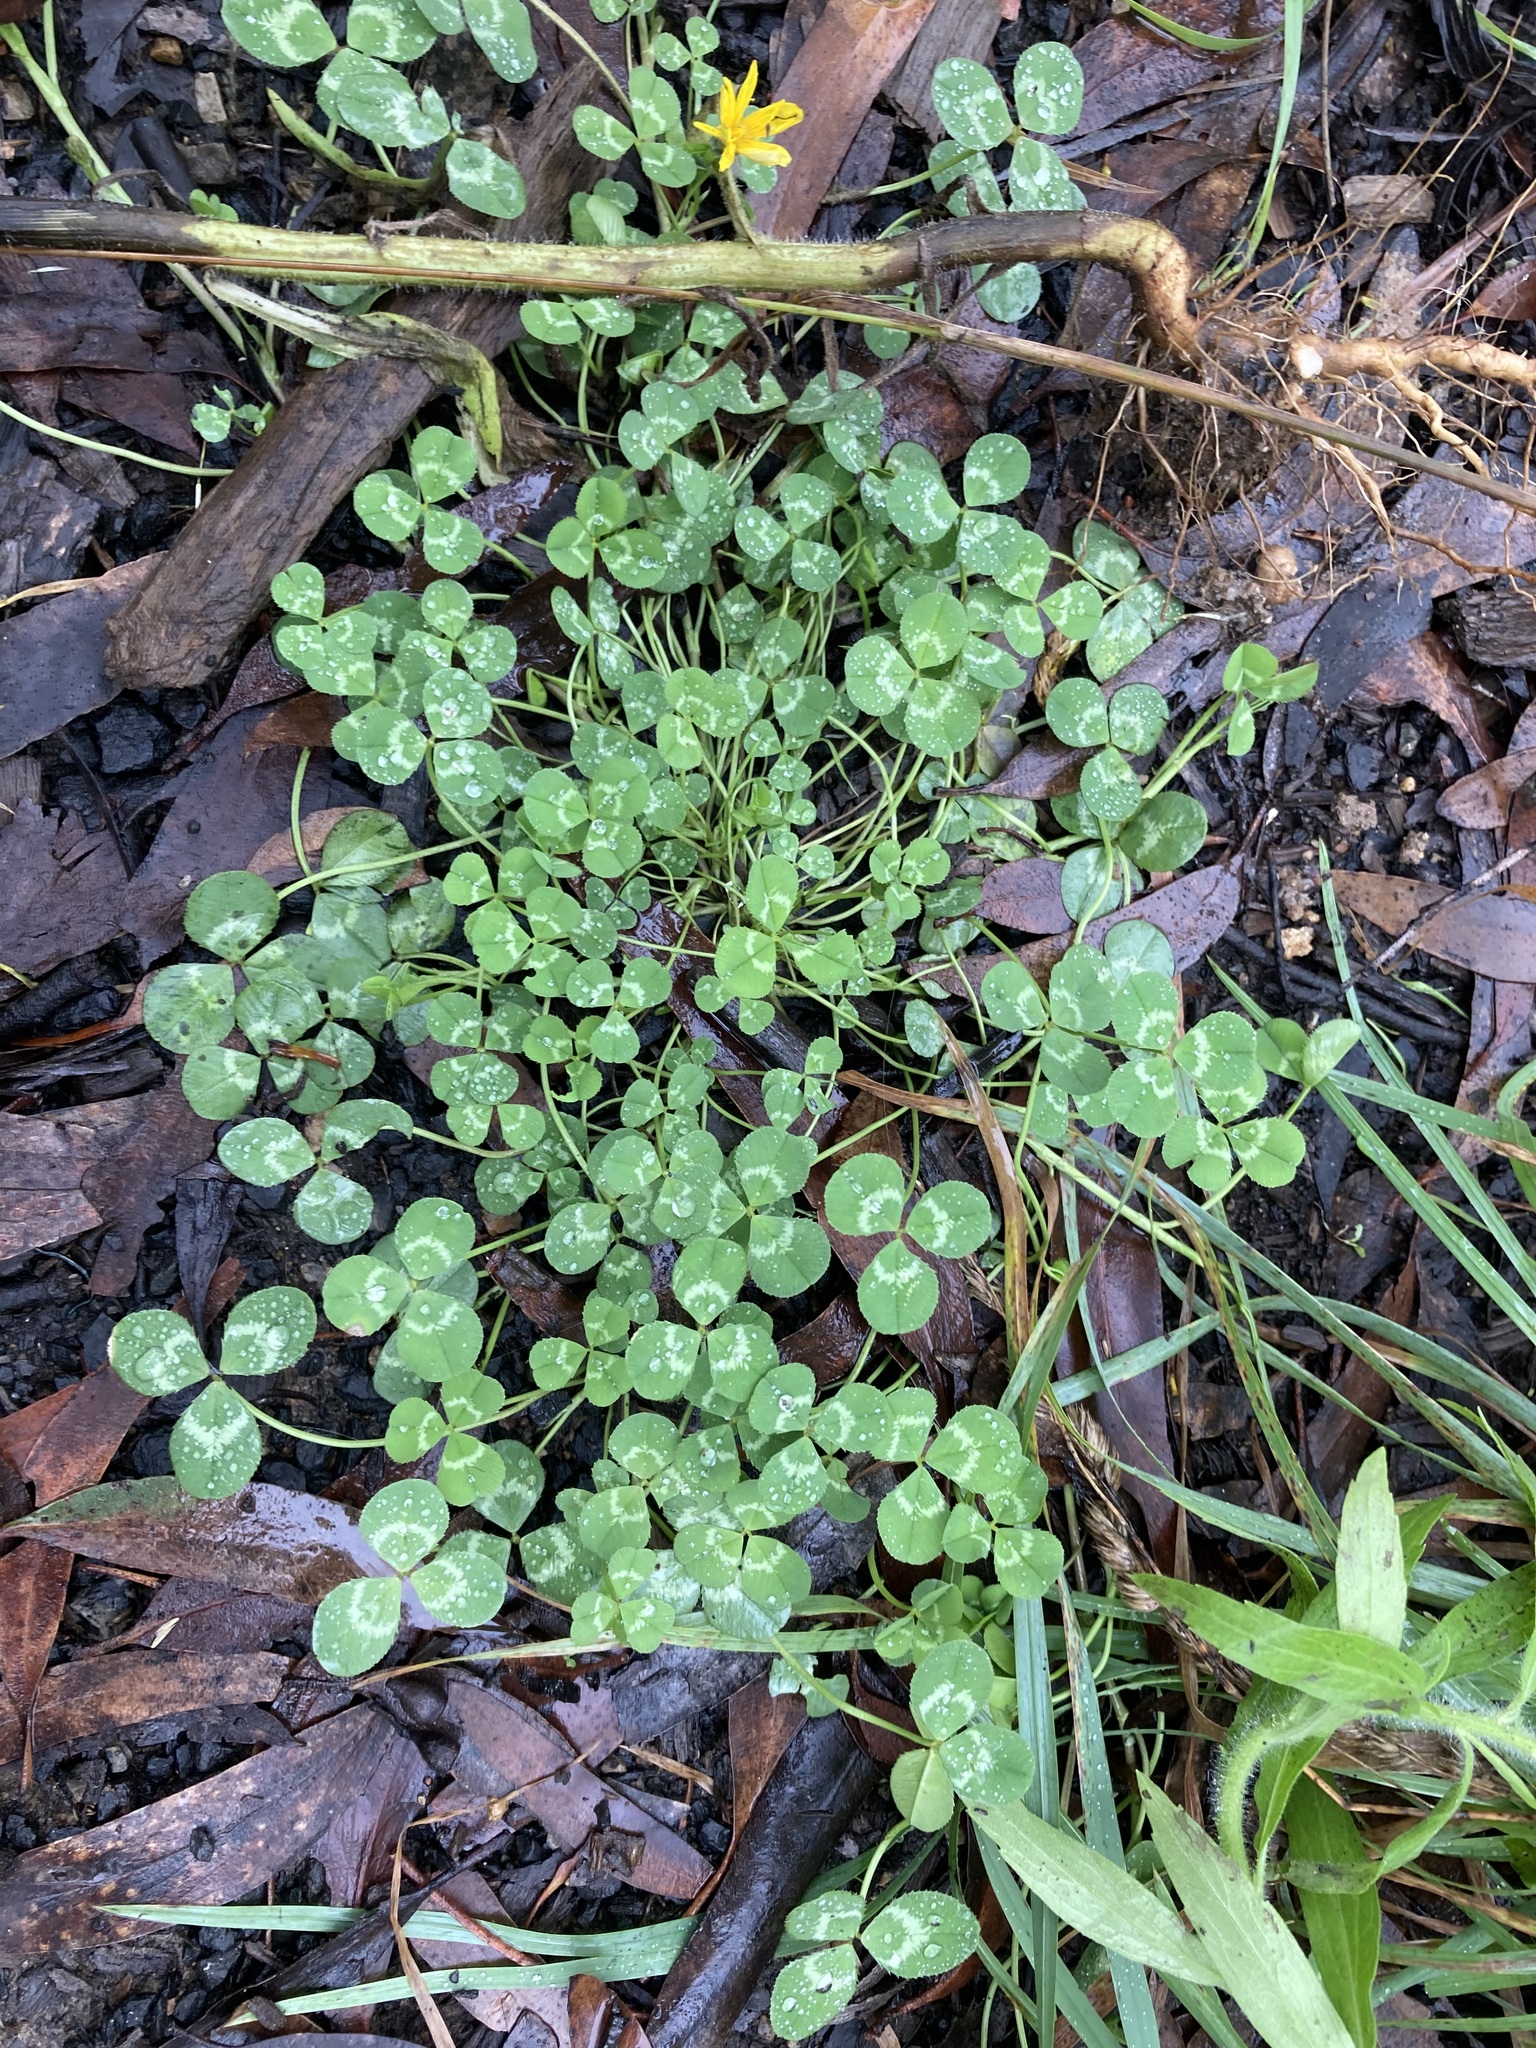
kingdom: Plantae
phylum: Tracheophyta
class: Magnoliopsida
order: Fabales
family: Fabaceae
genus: Trifolium
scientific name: Trifolium repens
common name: White clover
